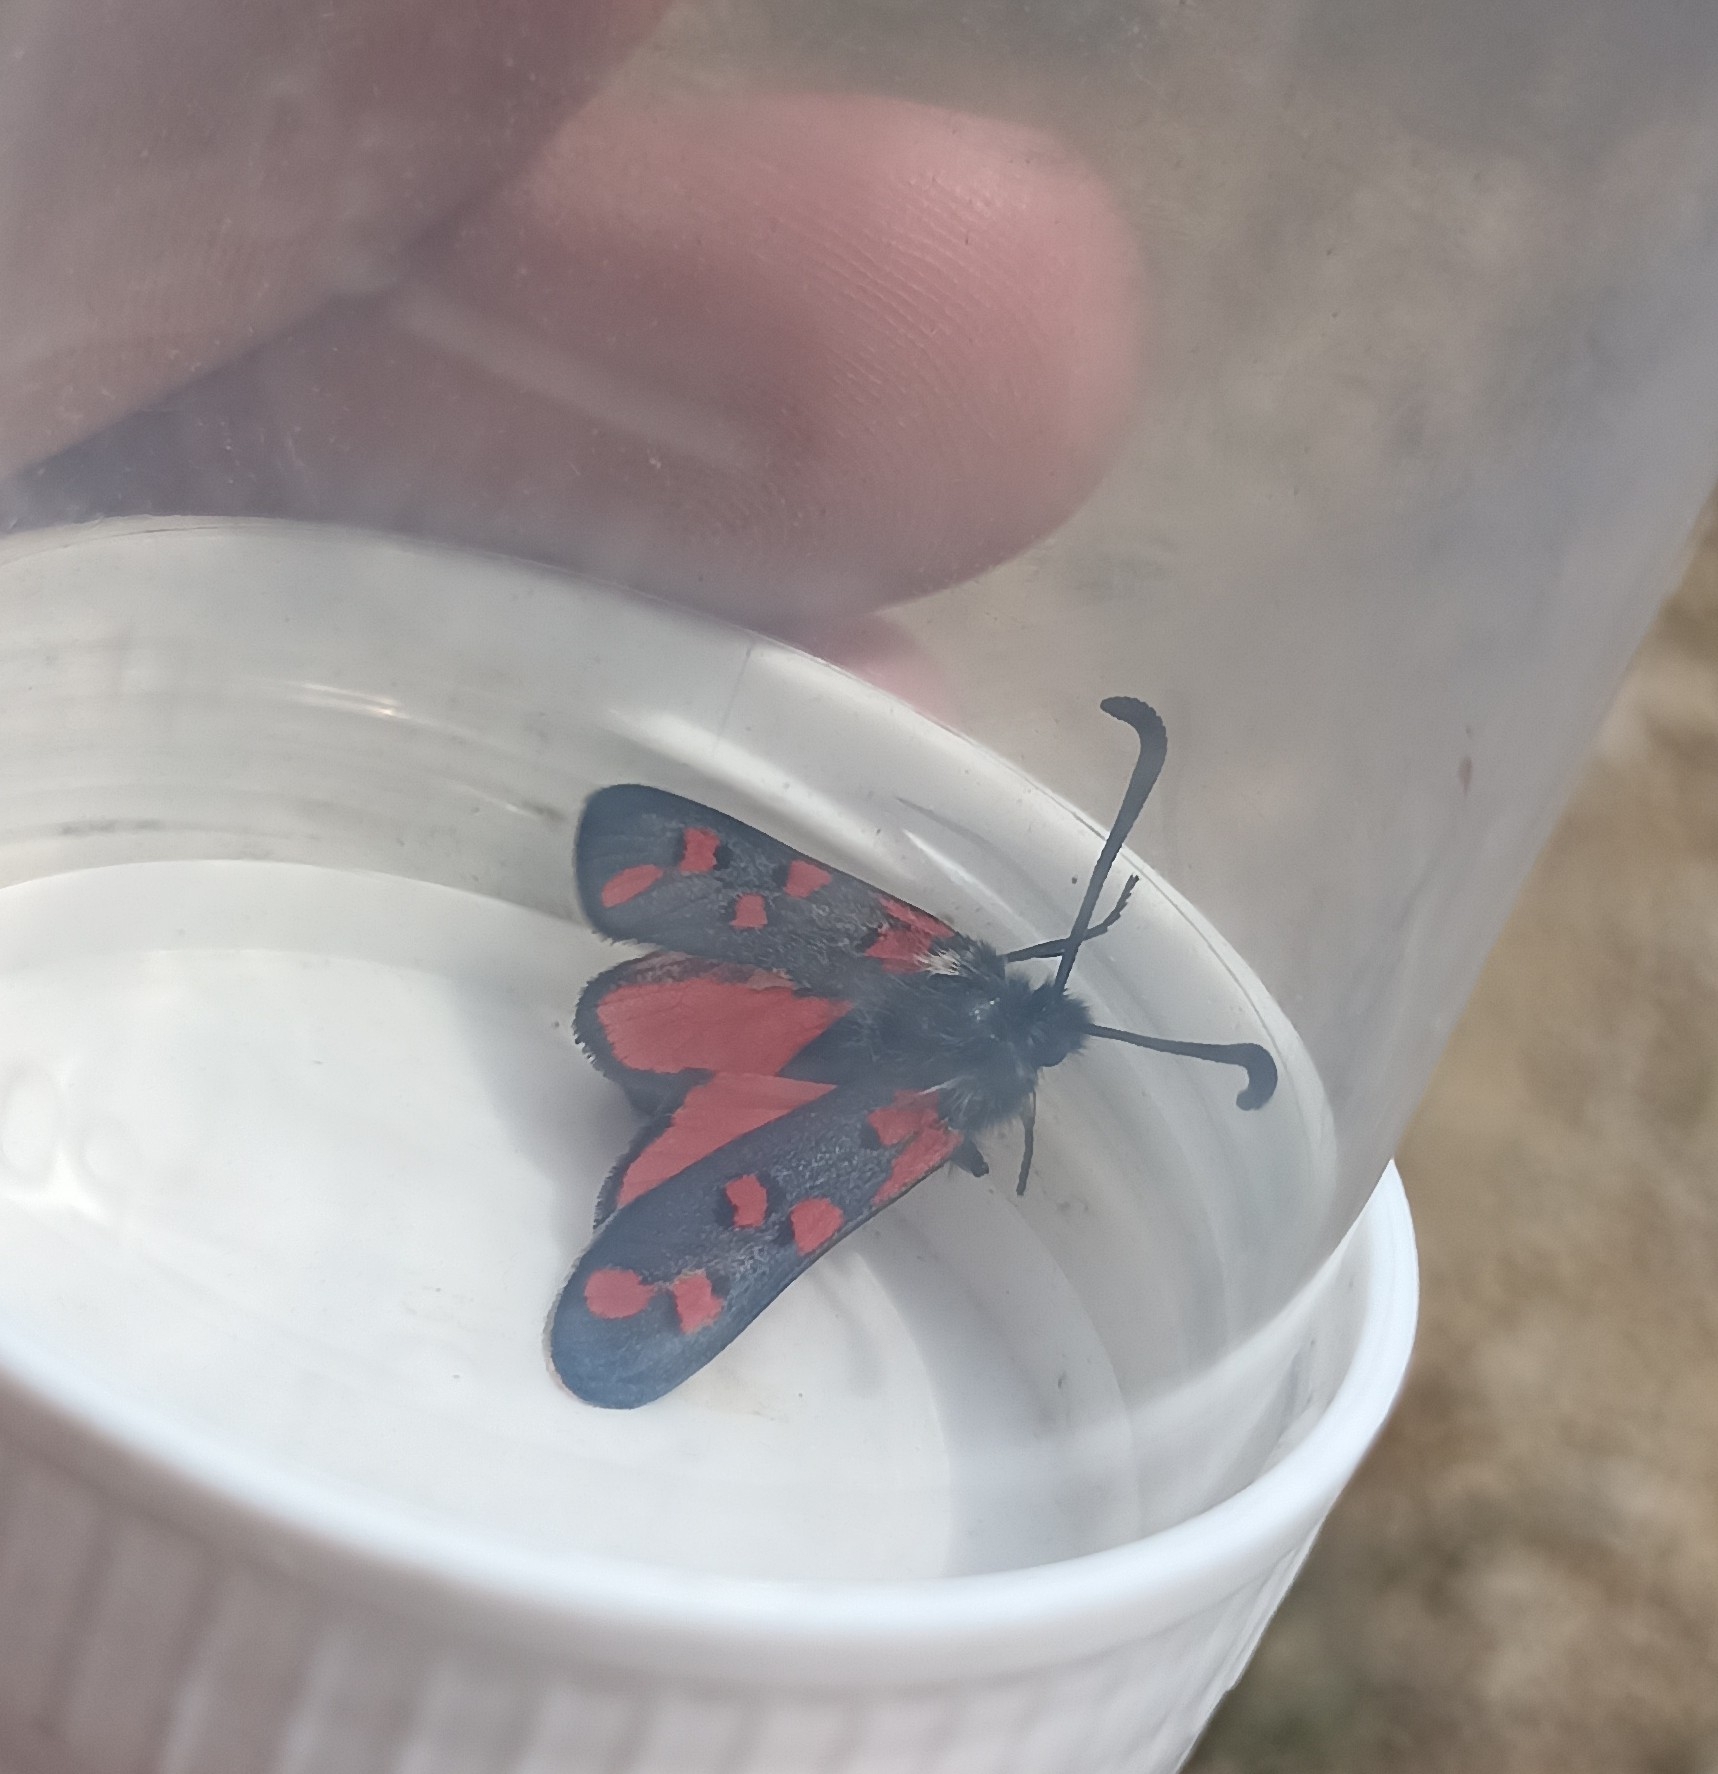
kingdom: Animalia
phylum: Arthropoda
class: Insecta
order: Lepidoptera
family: Zygaenidae
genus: Zygaena
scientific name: Zygaena rhadamanthus
